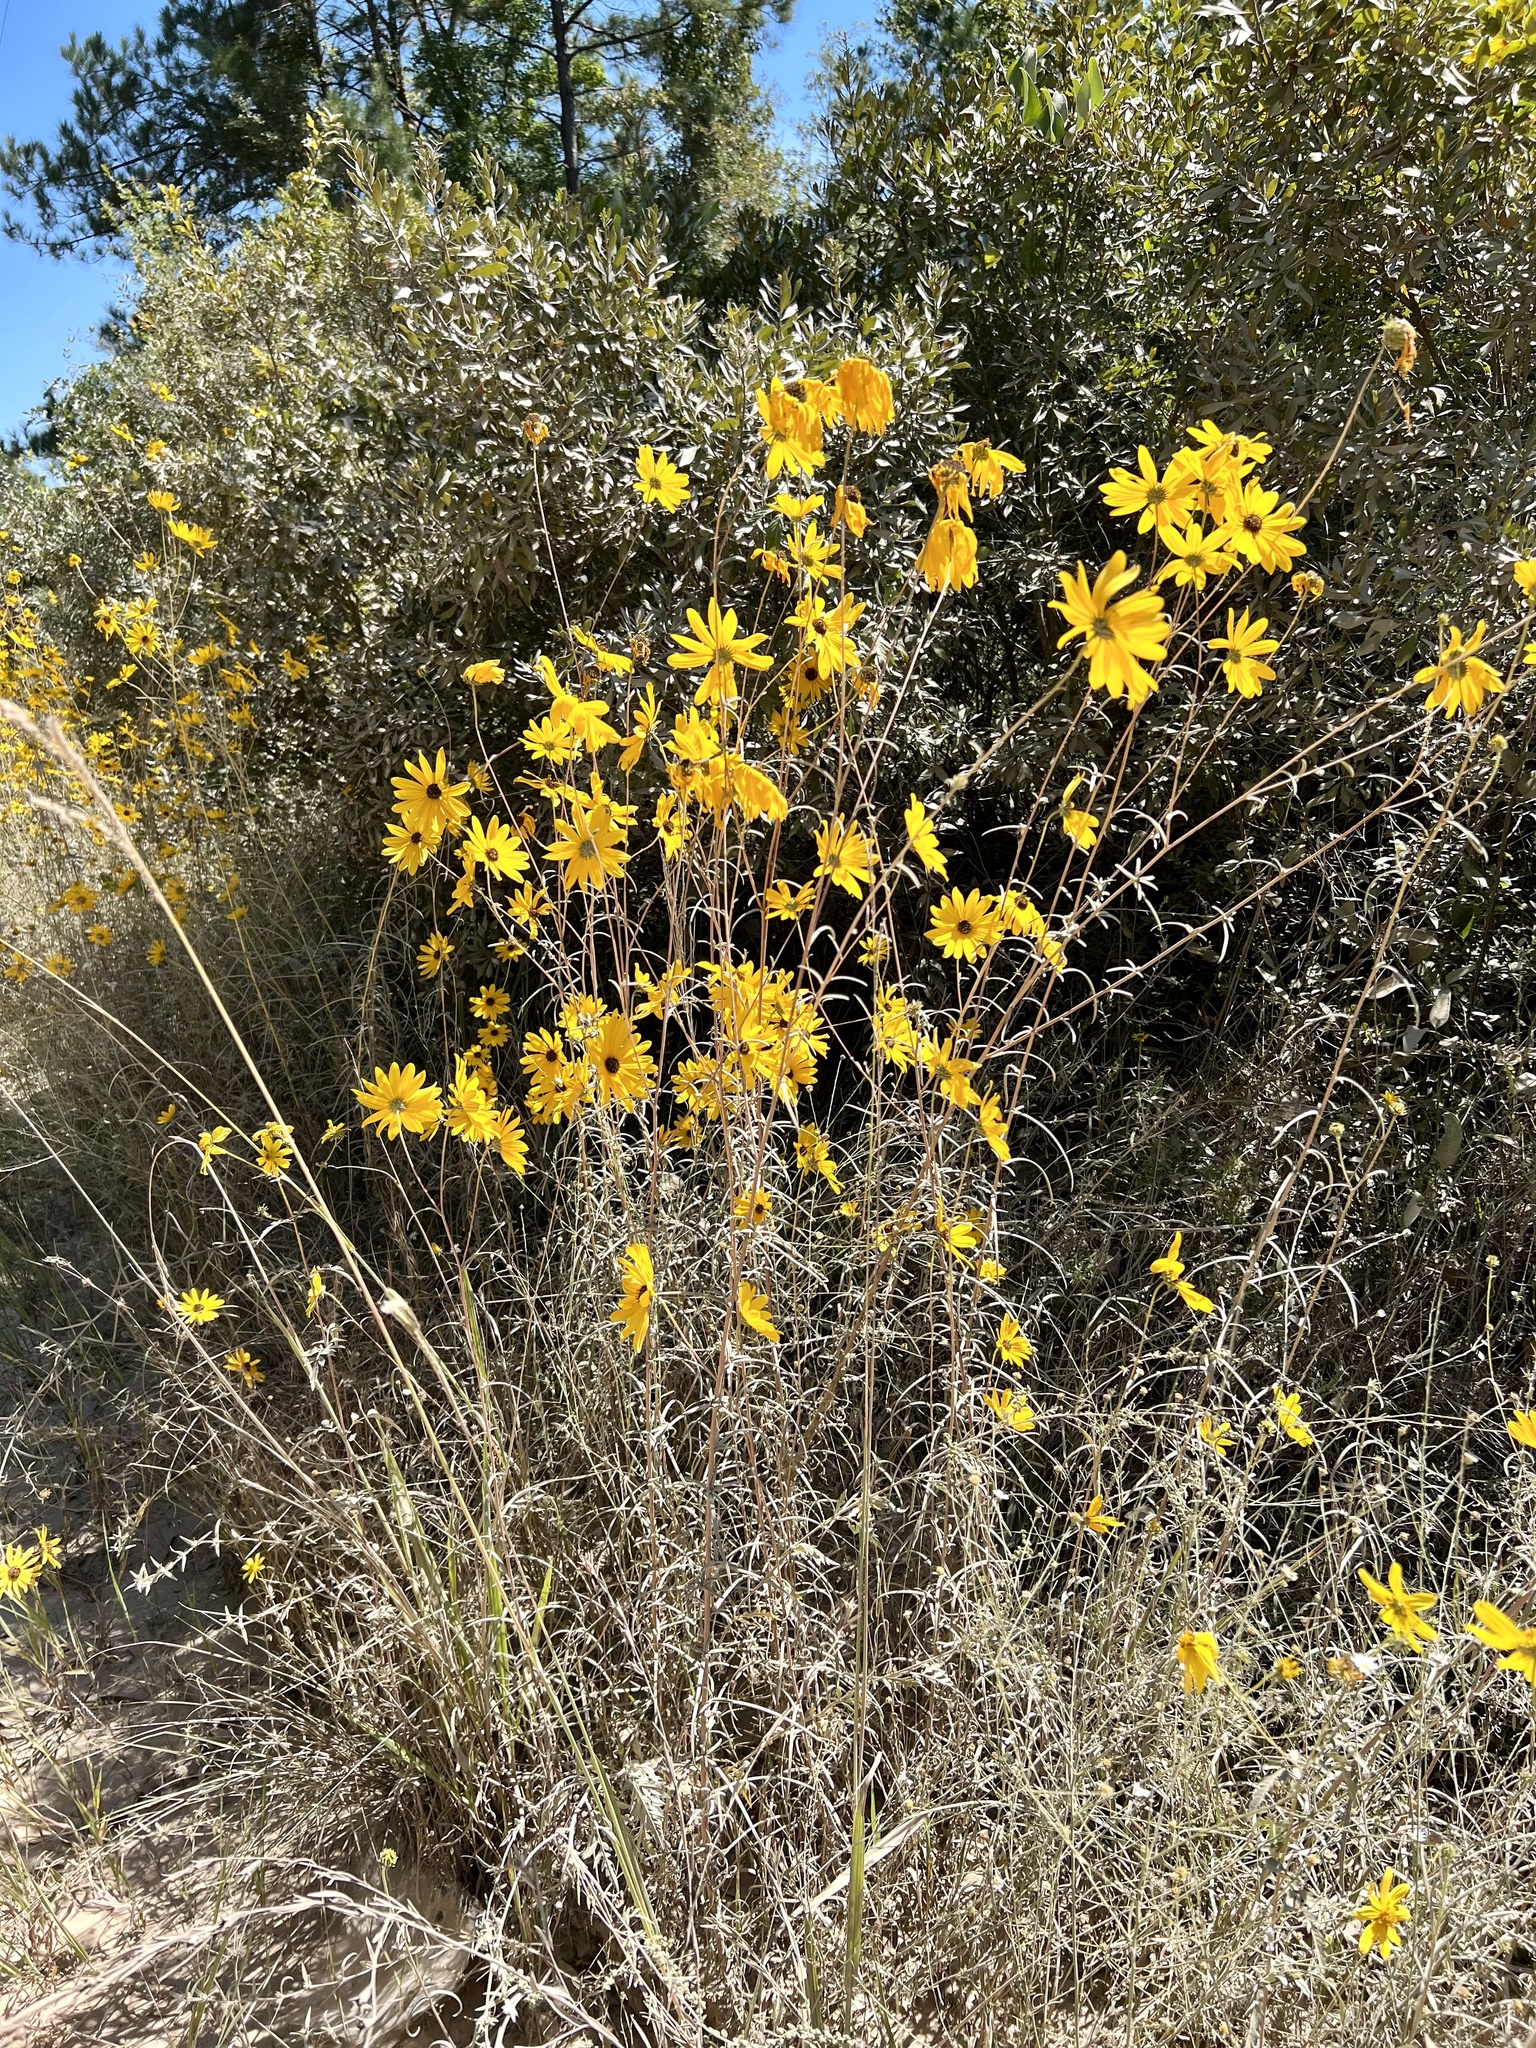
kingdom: Plantae
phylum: Tracheophyta
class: Magnoliopsida
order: Asterales
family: Asteraceae
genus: Helianthus
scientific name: Helianthus angustifolius
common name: Swamp sunflower
